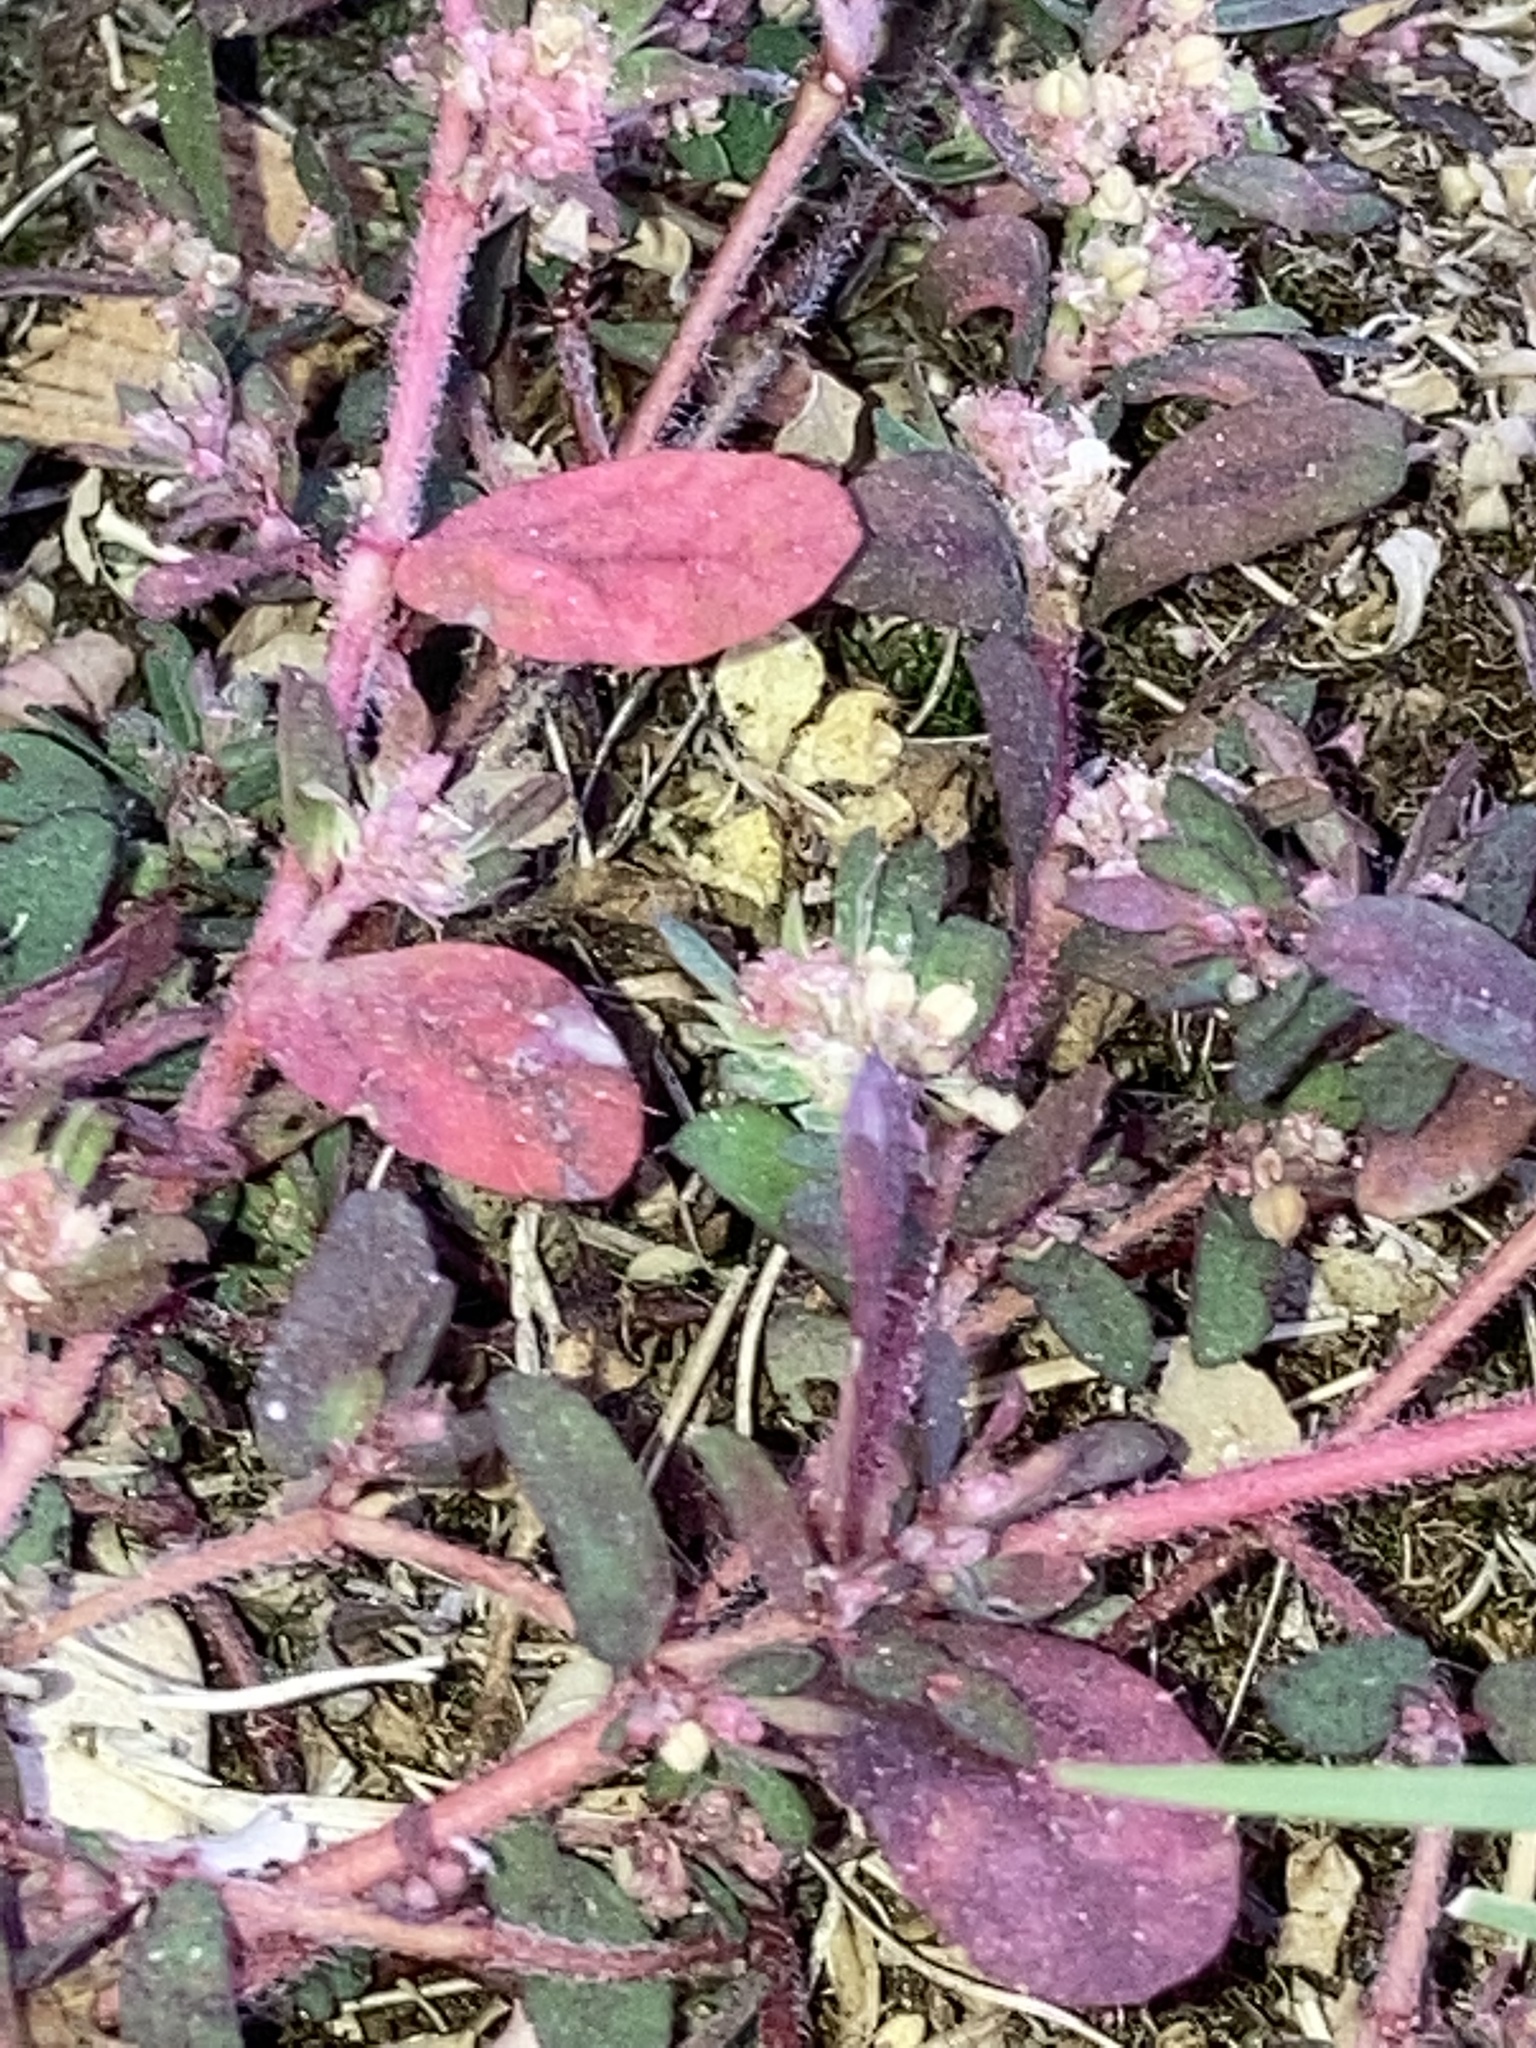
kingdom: Plantae
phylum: Tracheophyta
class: Magnoliopsida
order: Malpighiales
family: Euphorbiaceae
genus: Euphorbia
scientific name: Euphorbia maculata
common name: Spotted spurge
